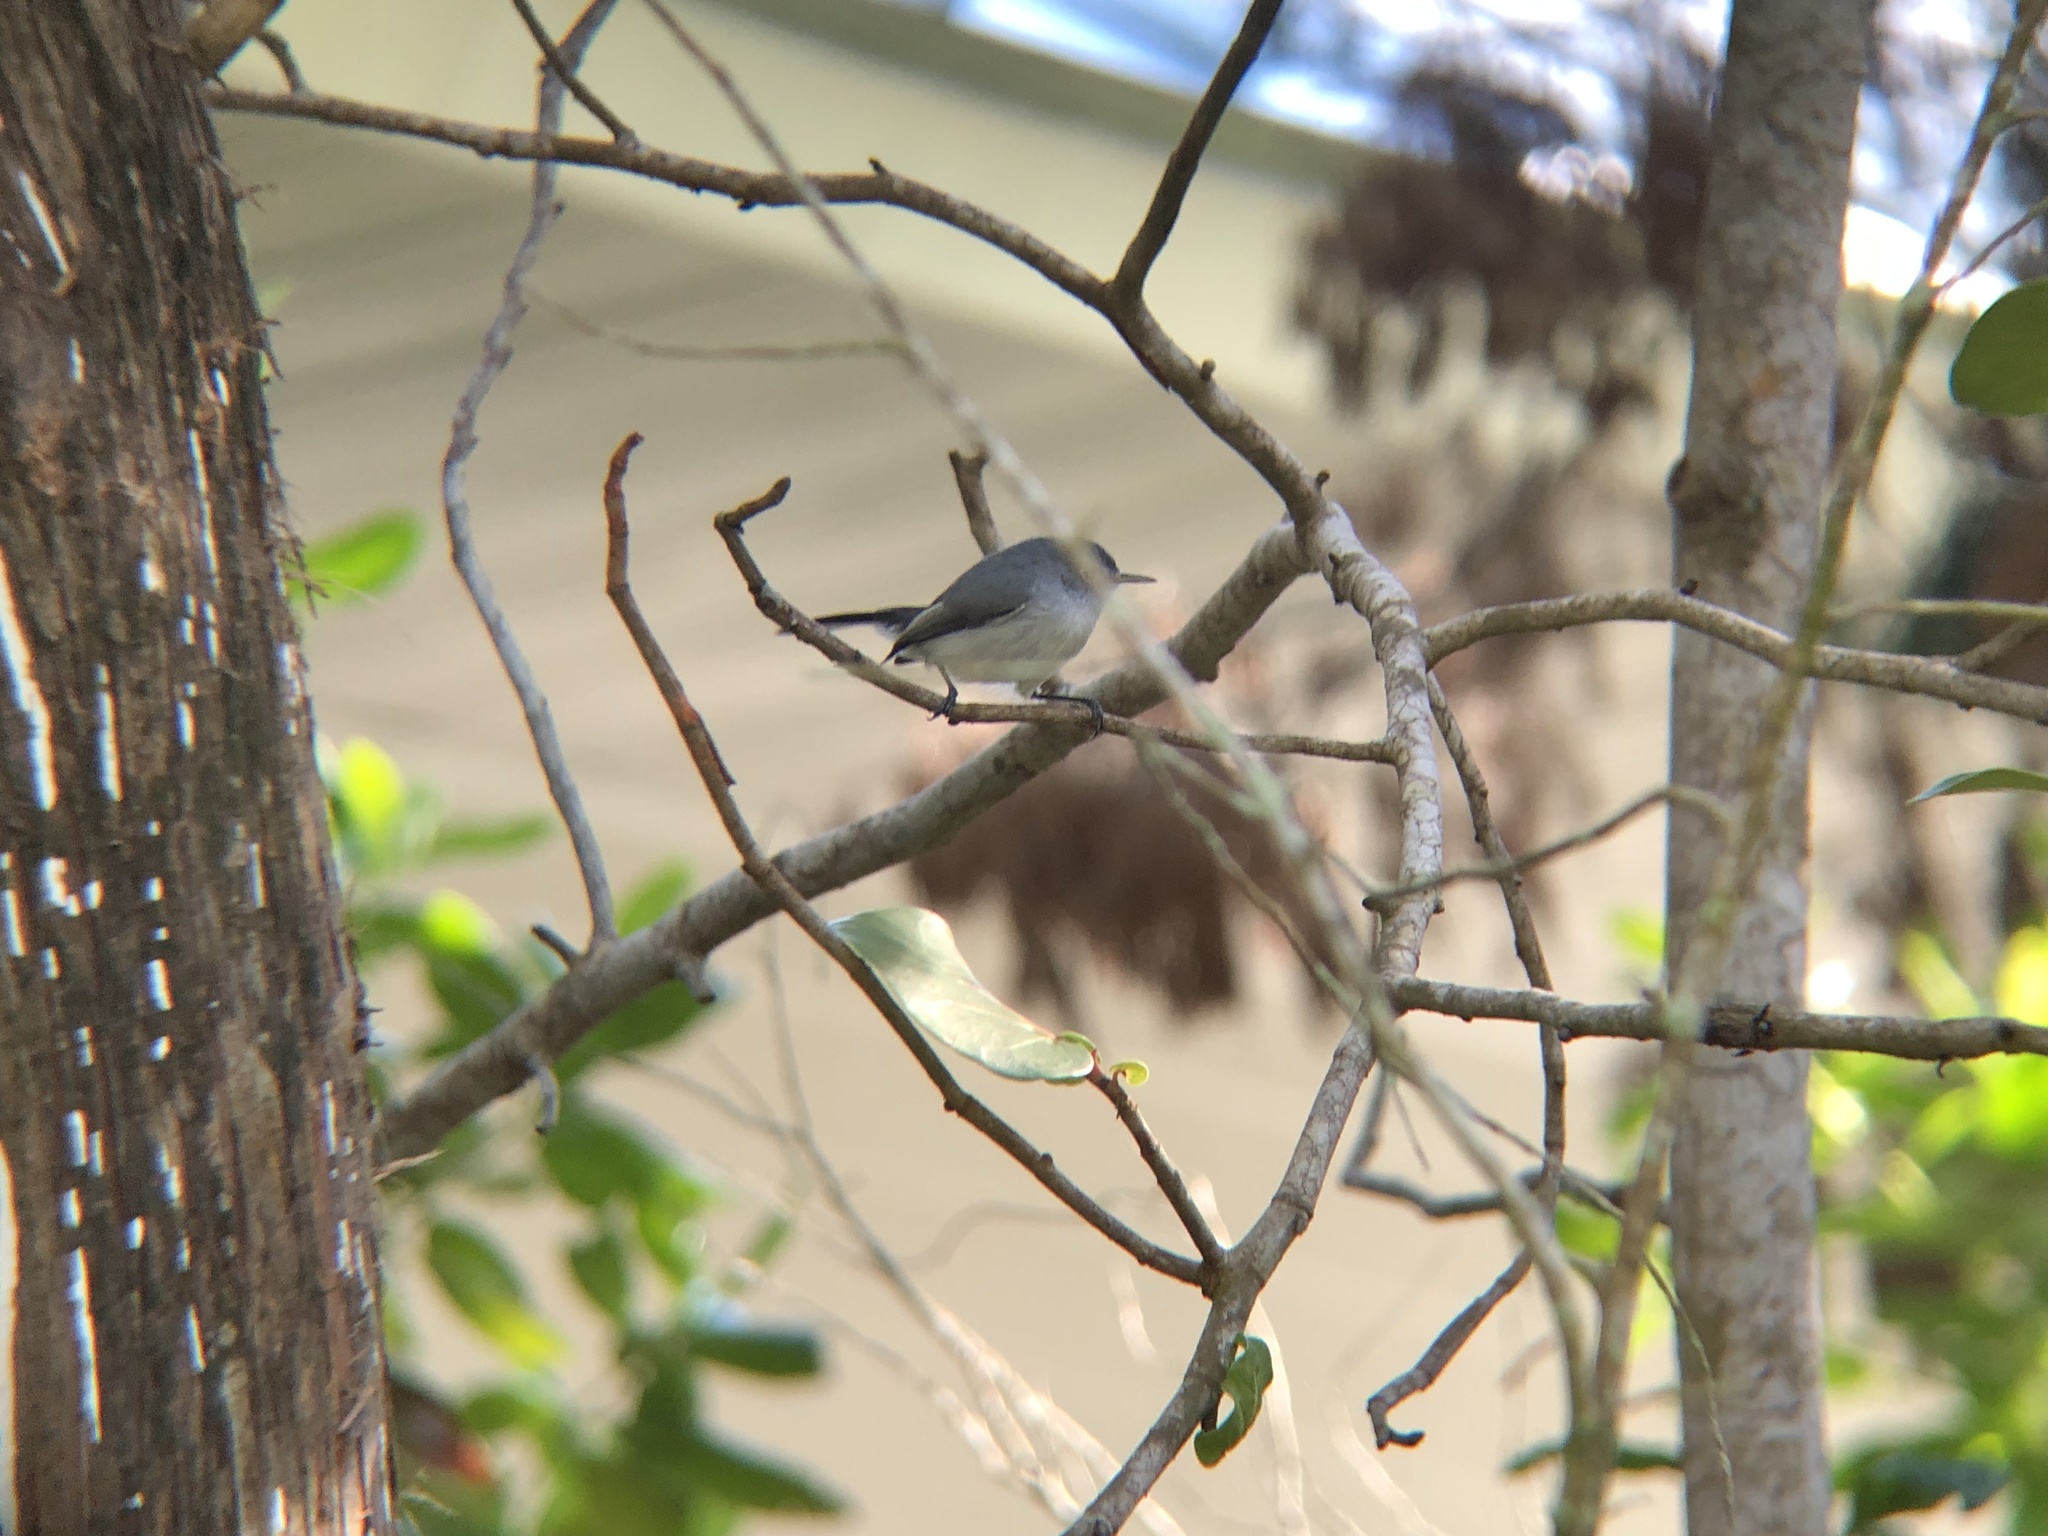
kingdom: Animalia
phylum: Chordata
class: Aves
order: Passeriformes
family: Polioptilidae
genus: Polioptila
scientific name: Polioptila caerulea
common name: Blue-gray gnatcatcher
